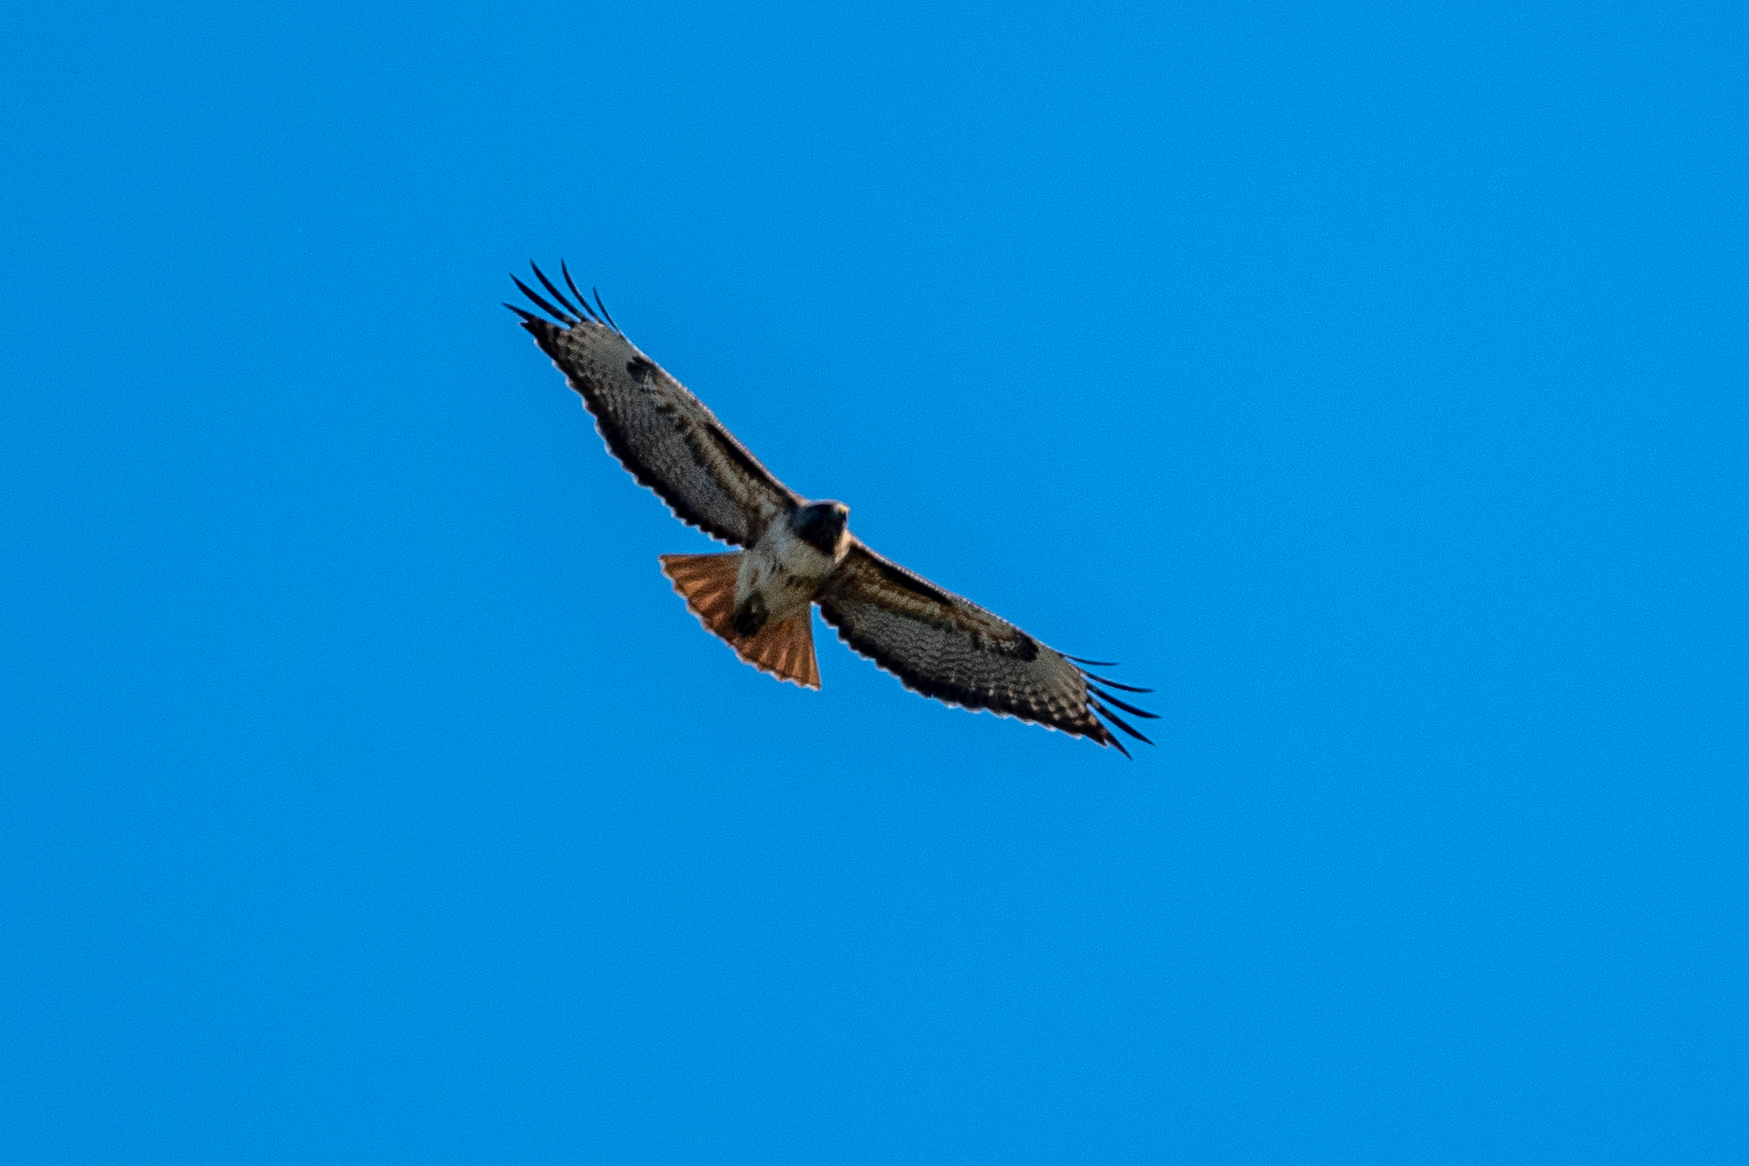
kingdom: Animalia
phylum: Chordata
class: Aves
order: Accipitriformes
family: Accipitridae
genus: Buteo
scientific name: Buteo jamaicensis
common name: Red-tailed hawk
